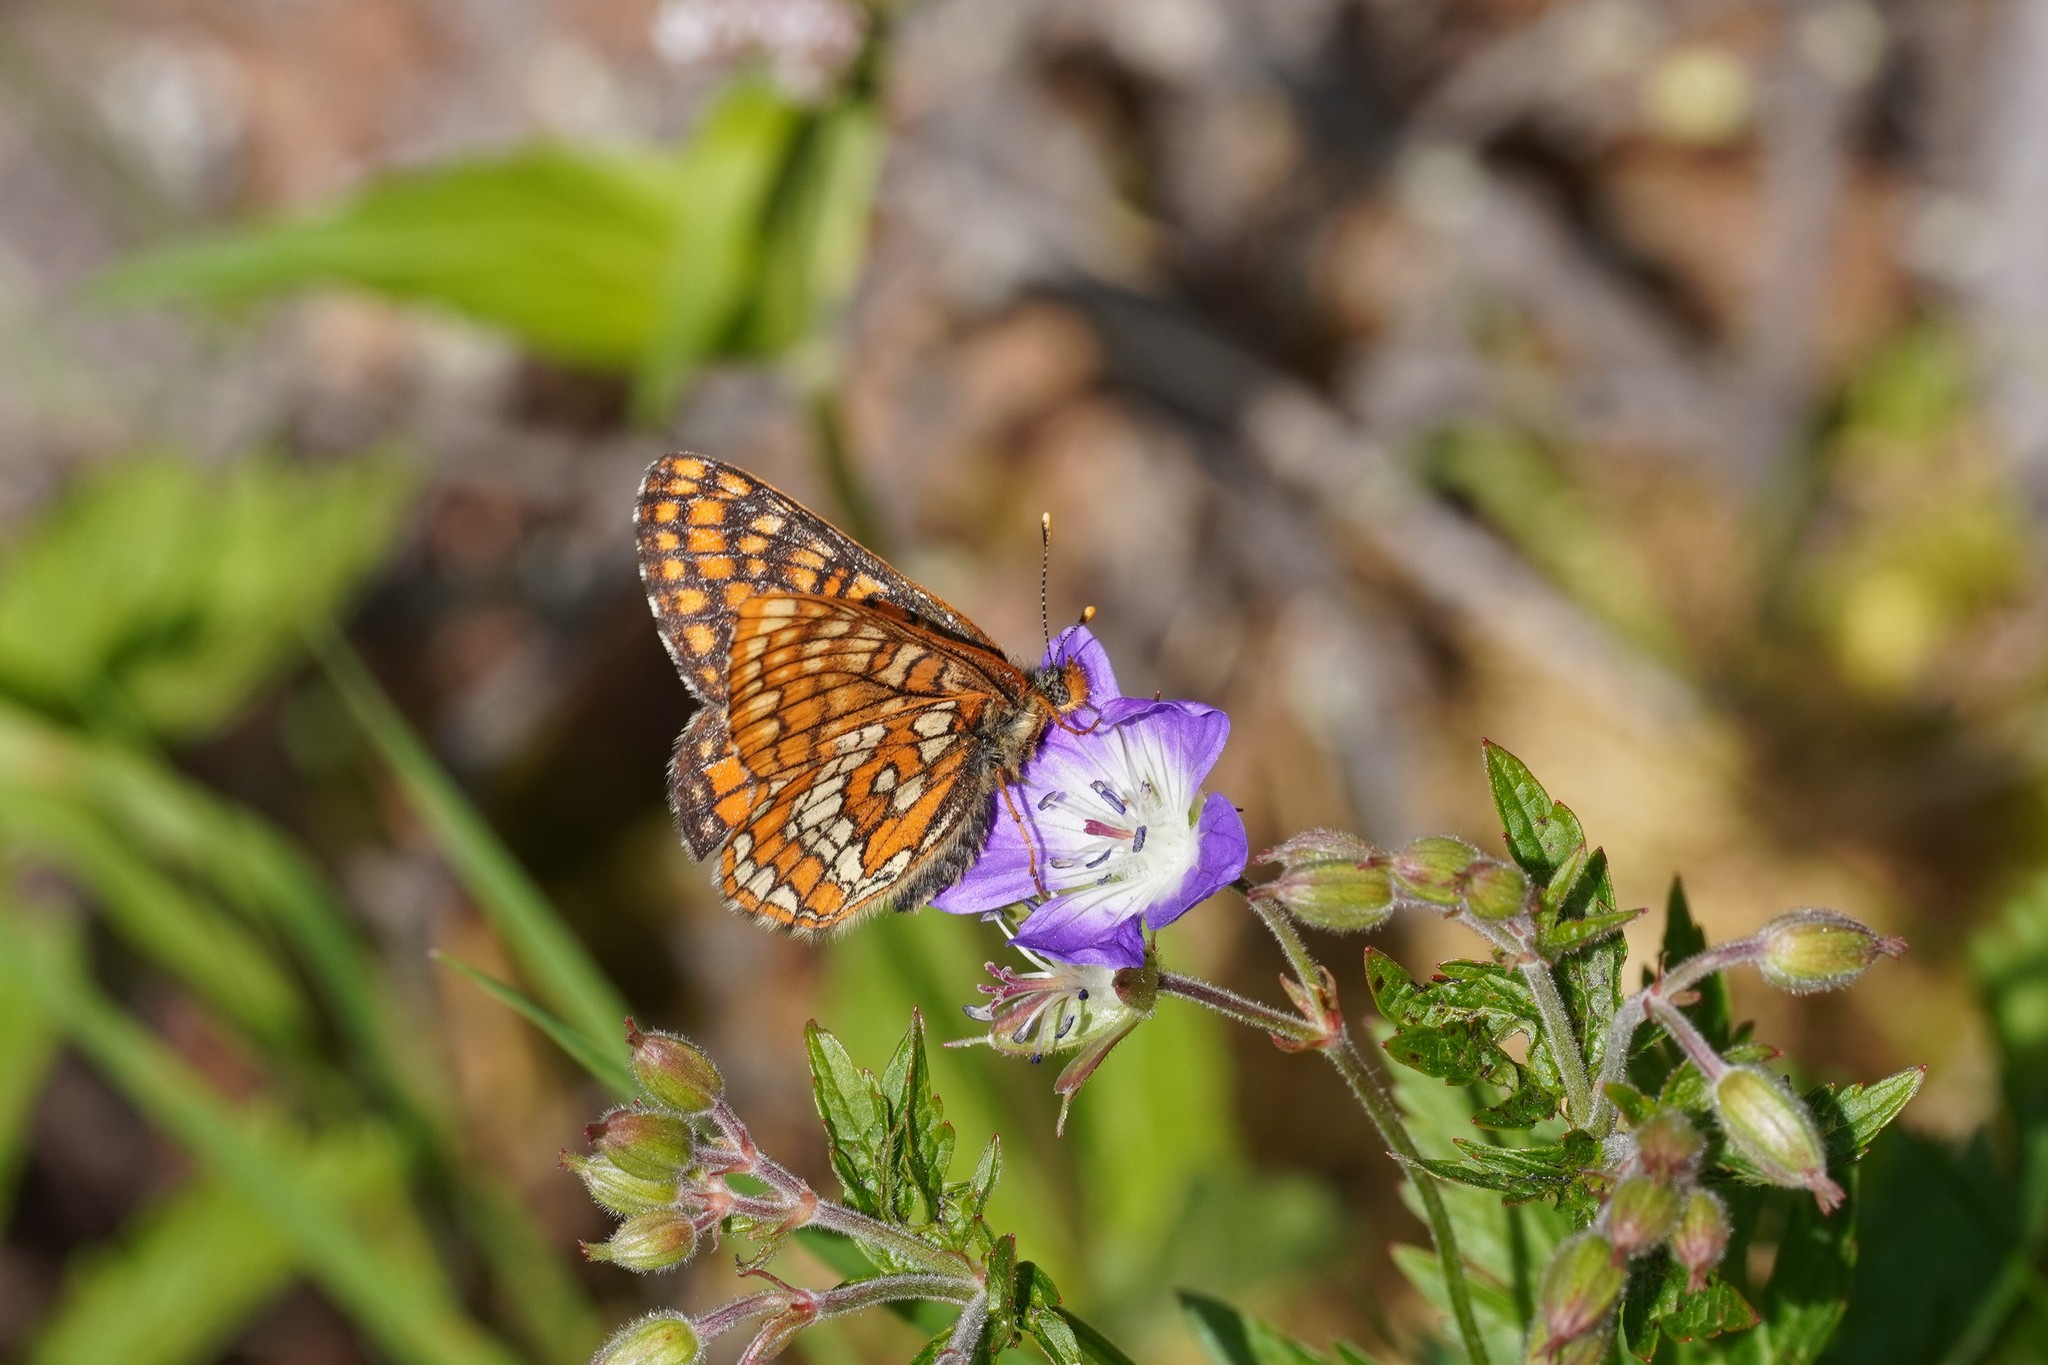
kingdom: Animalia
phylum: Arthropoda
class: Insecta
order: Lepidoptera
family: Nymphalidae
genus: Hypodryas
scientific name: Hypodryas intermedia
